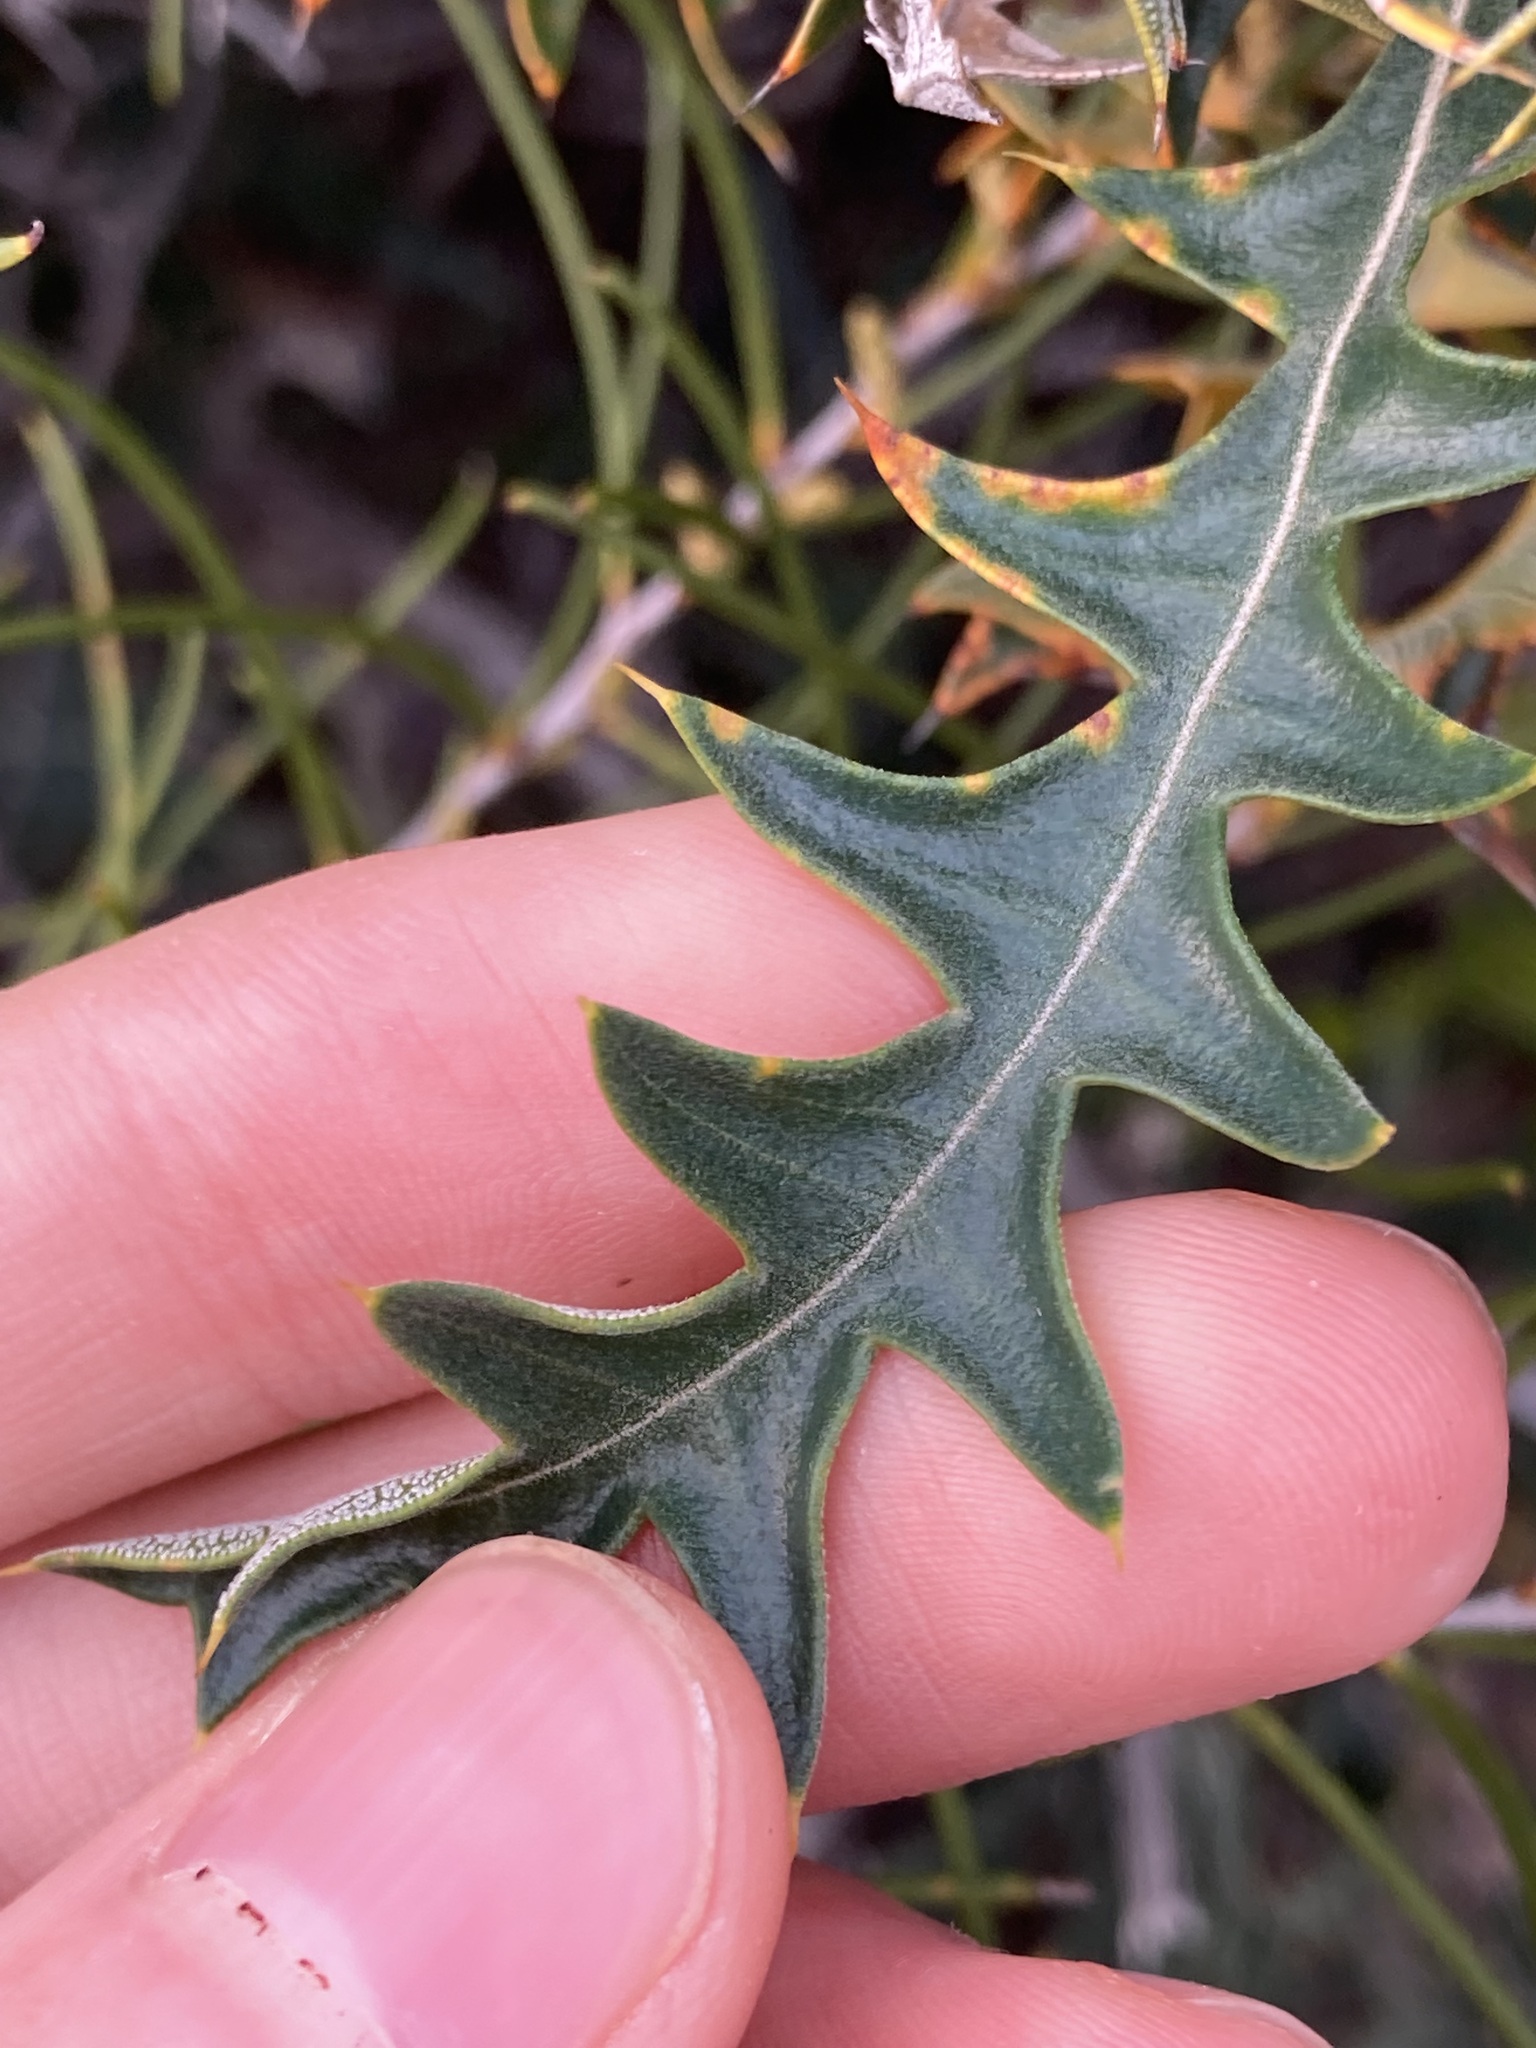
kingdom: Plantae
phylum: Tracheophyta
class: Magnoliopsida
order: Proteales
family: Proteaceae
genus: Banksia
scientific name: Banksia armata
